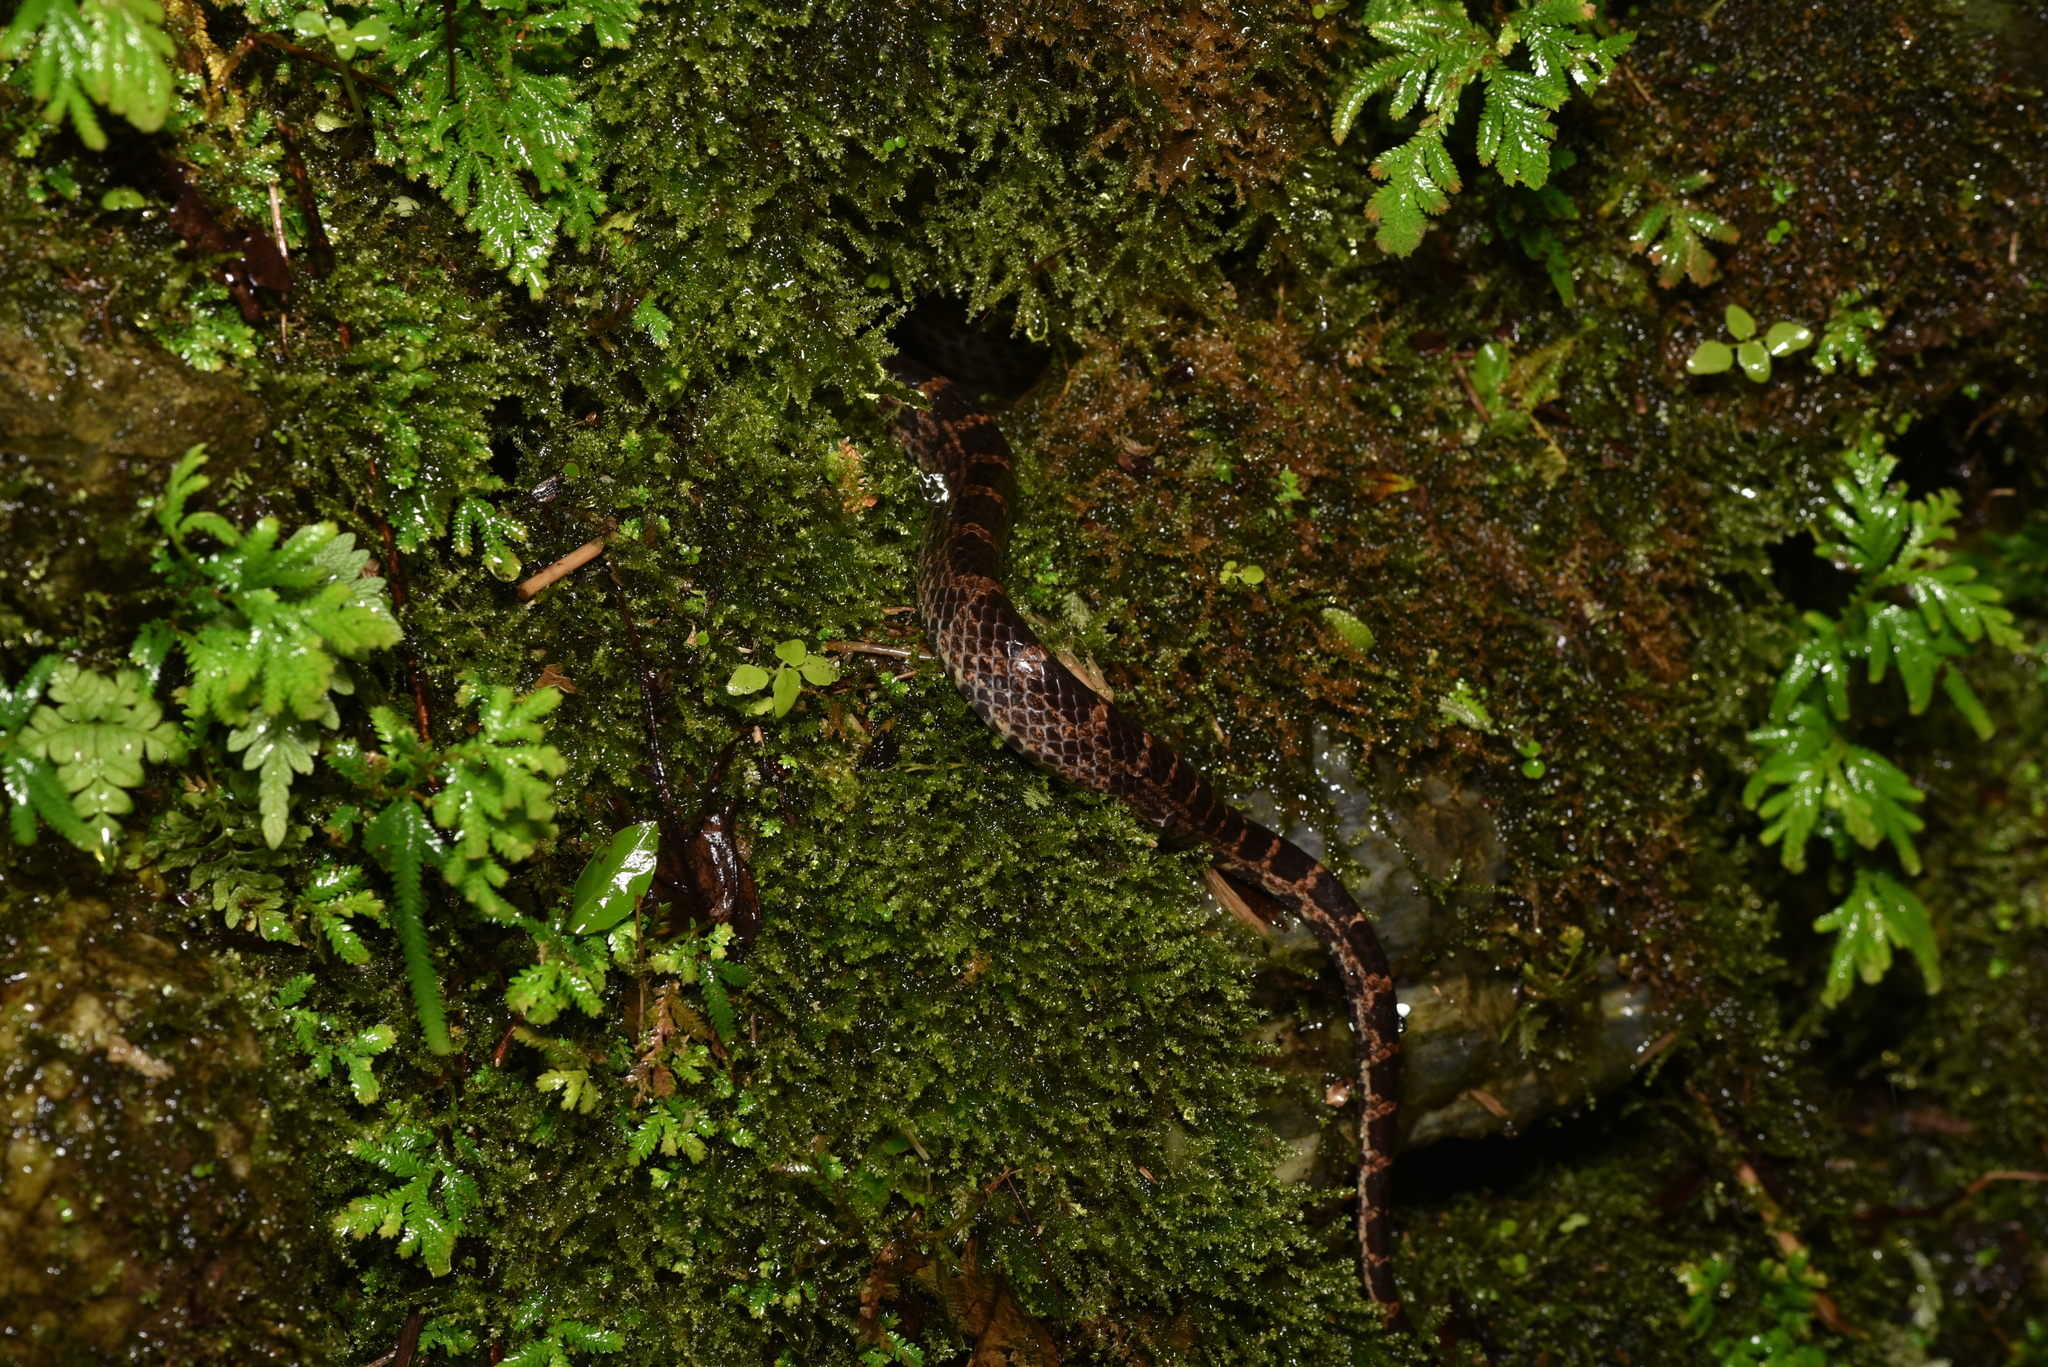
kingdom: Animalia
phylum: Chordata
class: Squamata
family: Colubridae
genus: Lycodon
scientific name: Lycodon rufozonatus
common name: Red-banded snake
